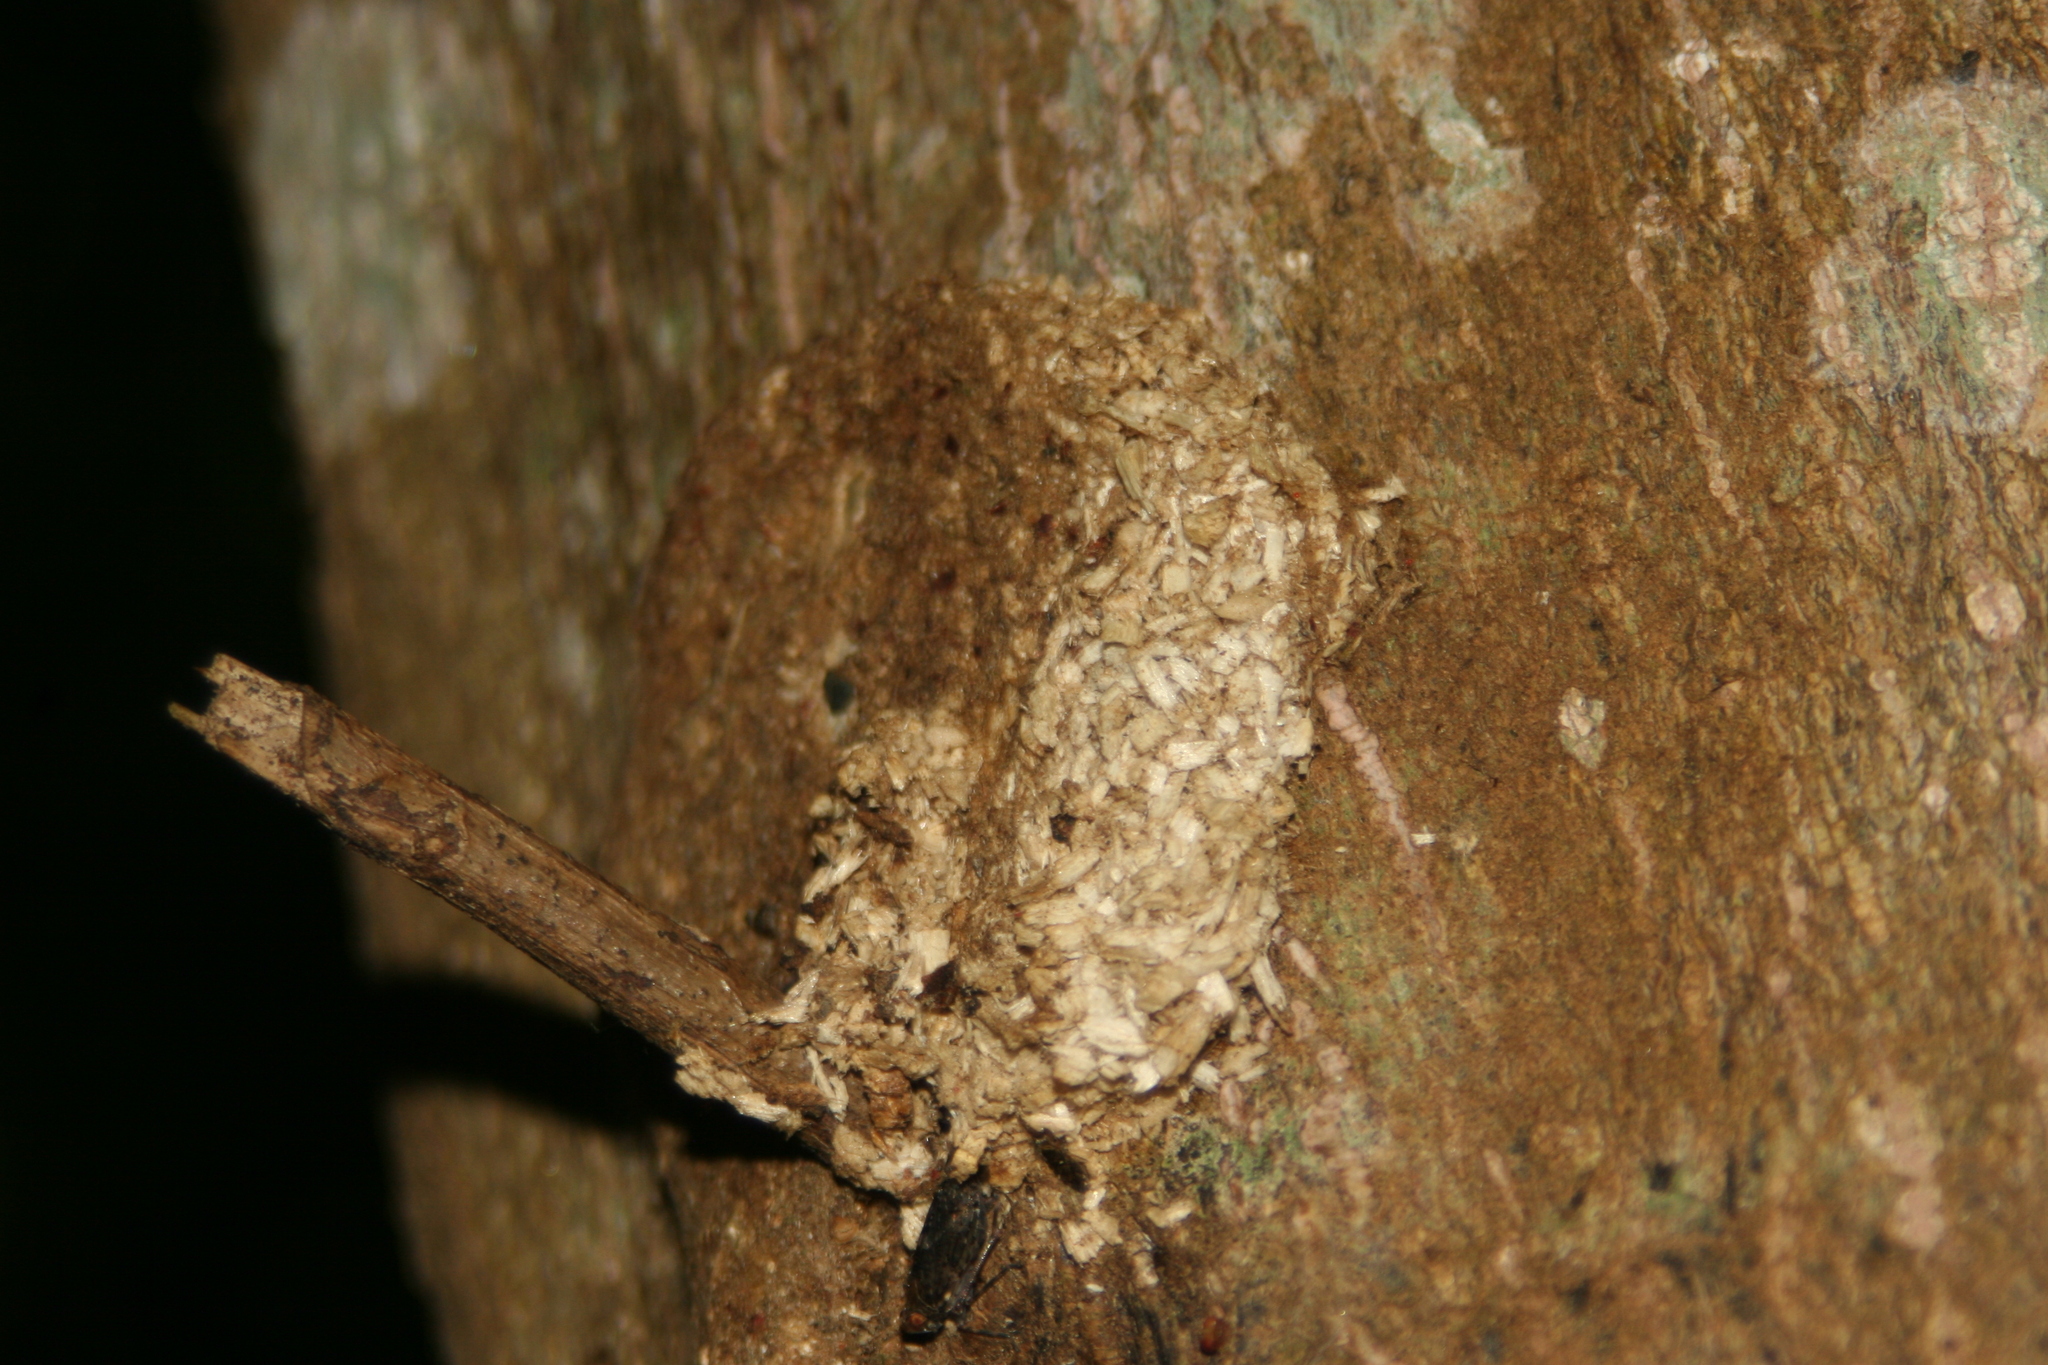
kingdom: Animalia
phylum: Arthropoda
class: Insecta
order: Lepidoptera
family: Hepialidae
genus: Aenetus
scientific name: Aenetus virescens
